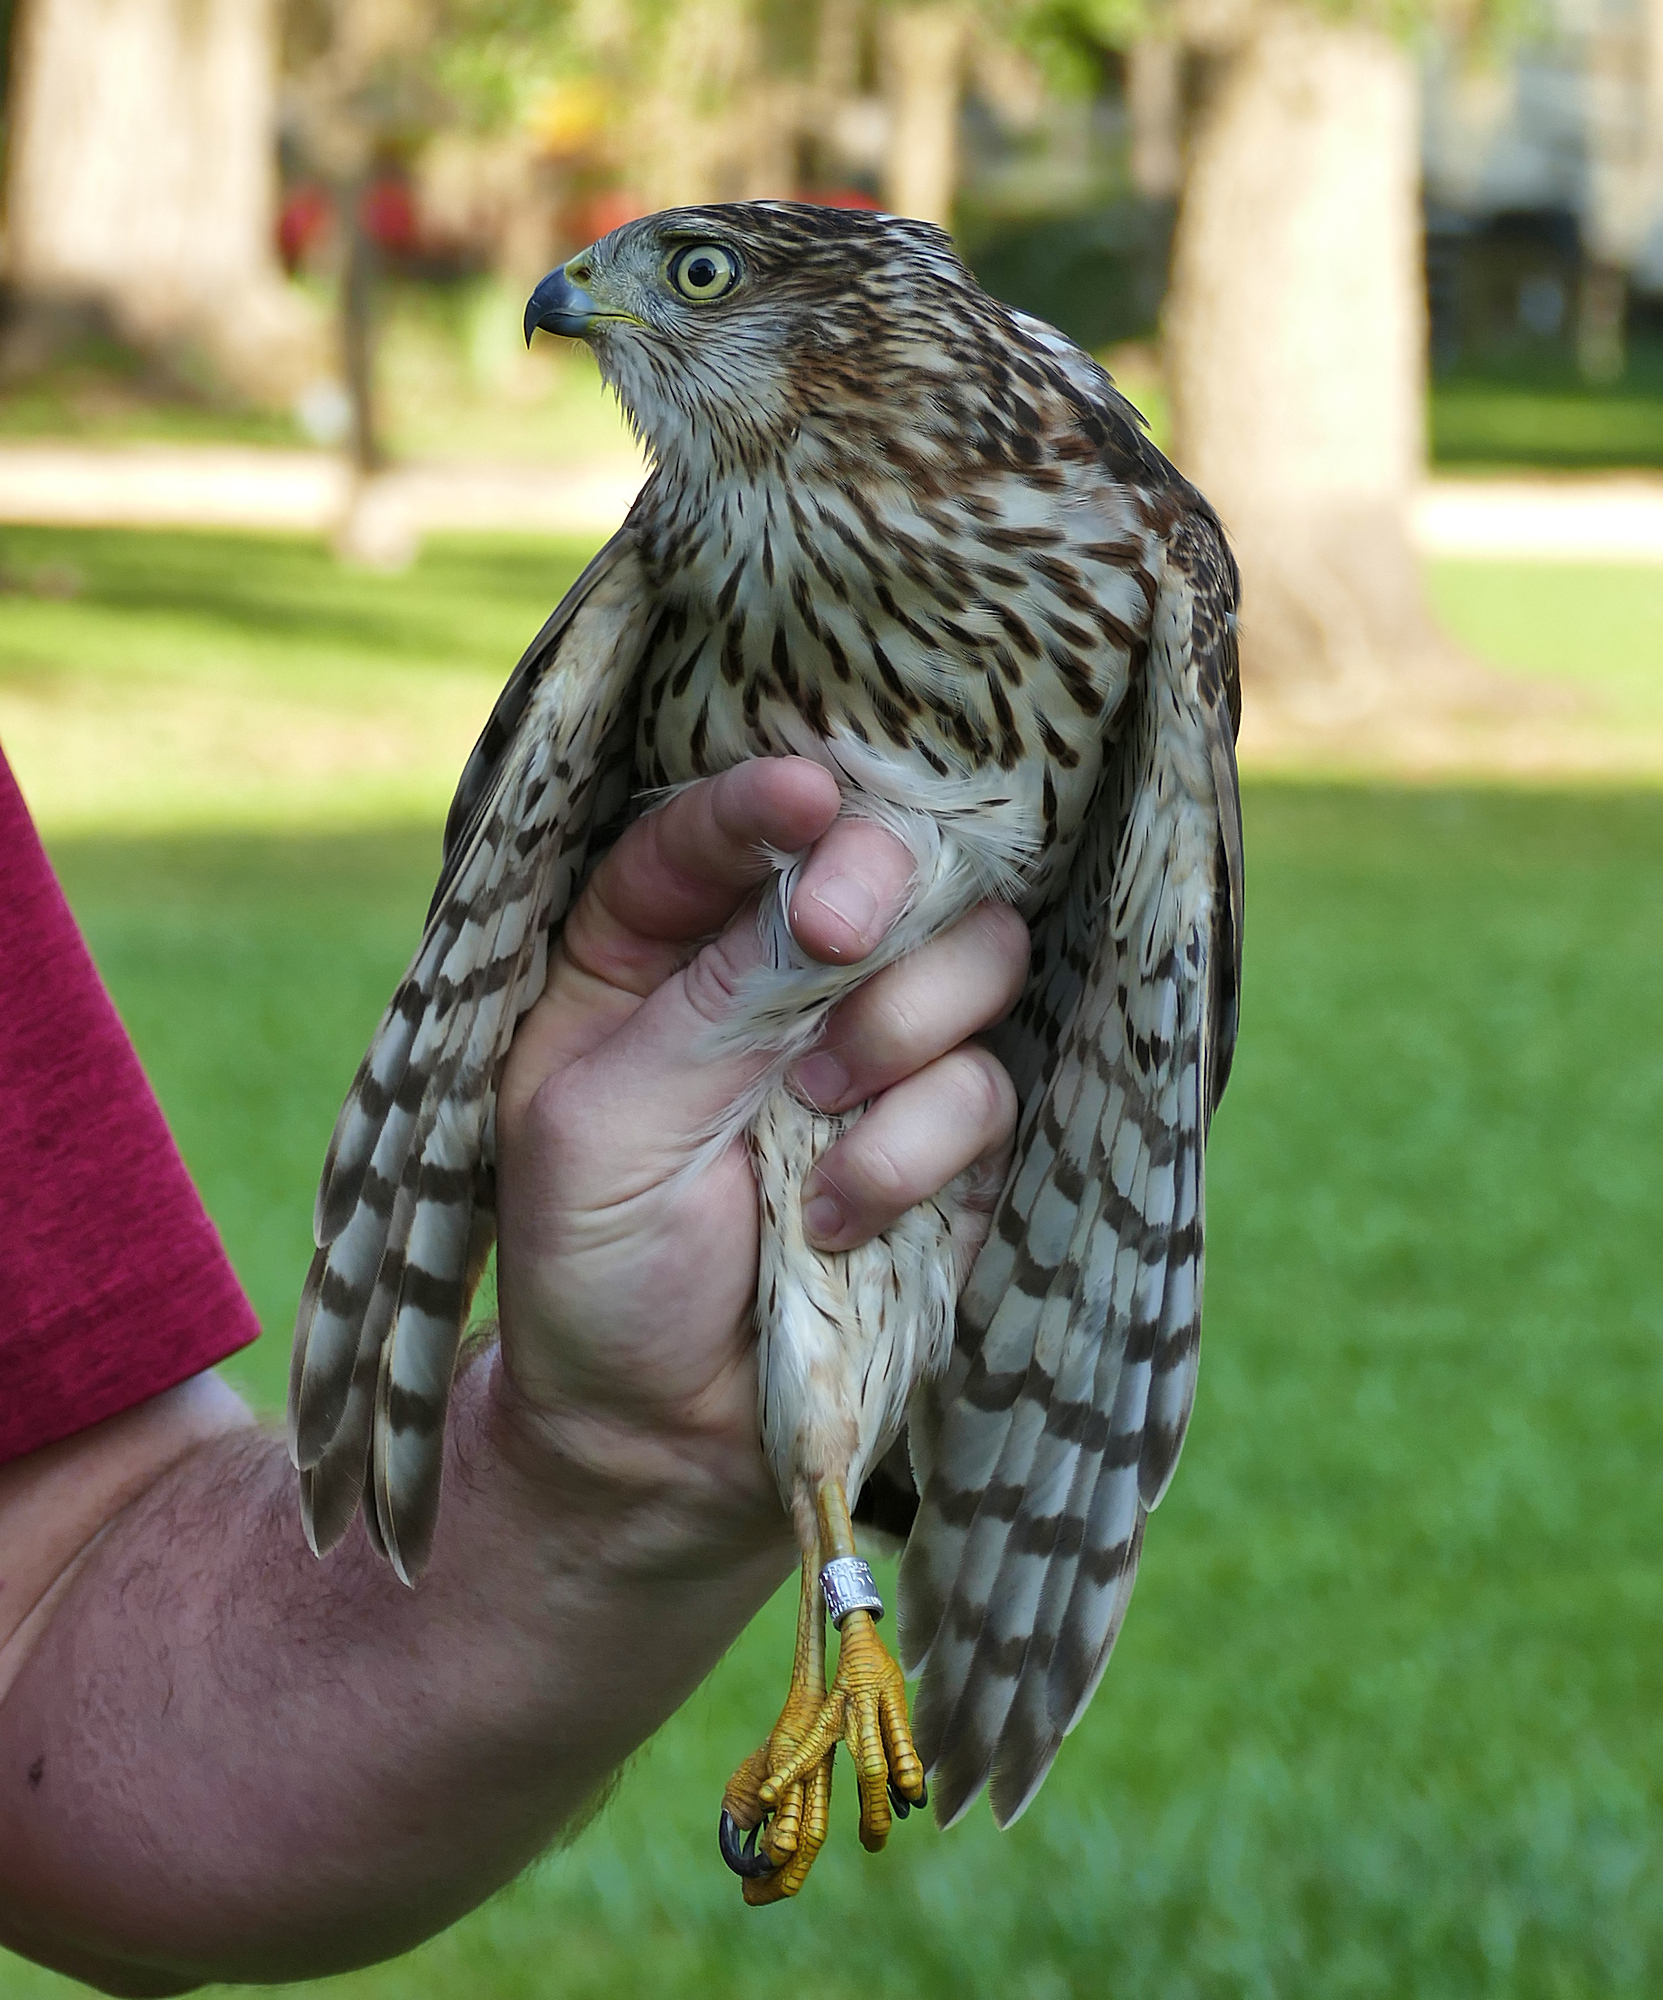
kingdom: Animalia
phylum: Chordata
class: Aves
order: Accipitriformes
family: Accipitridae
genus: Accipiter
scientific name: Accipiter cooperii
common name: Cooper's hawk
